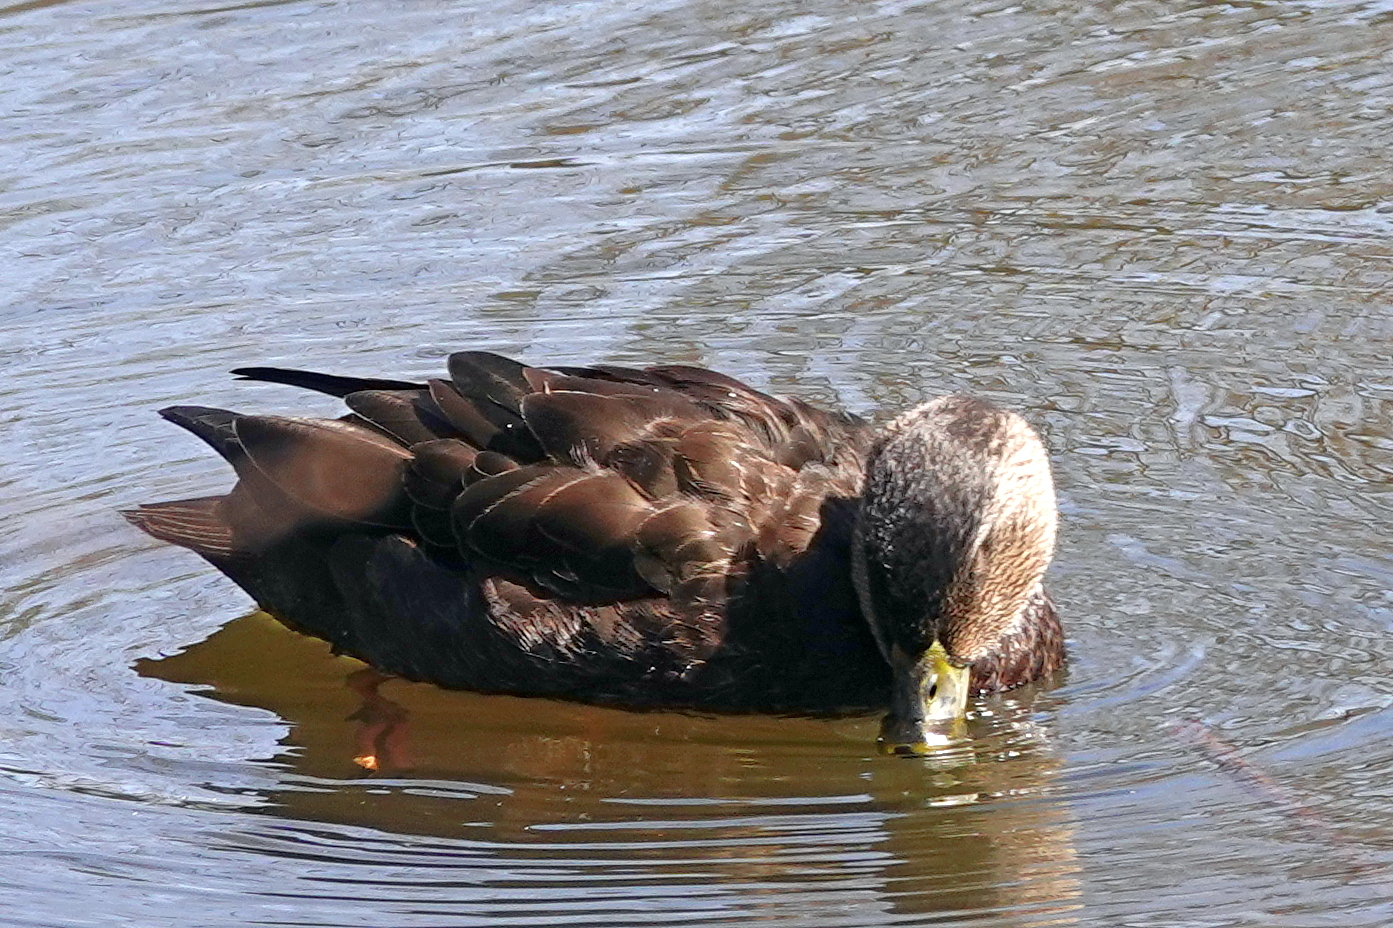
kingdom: Animalia
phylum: Chordata
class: Aves
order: Anseriformes
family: Anatidae
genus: Anas
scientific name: Anas rubripes
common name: American black duck
